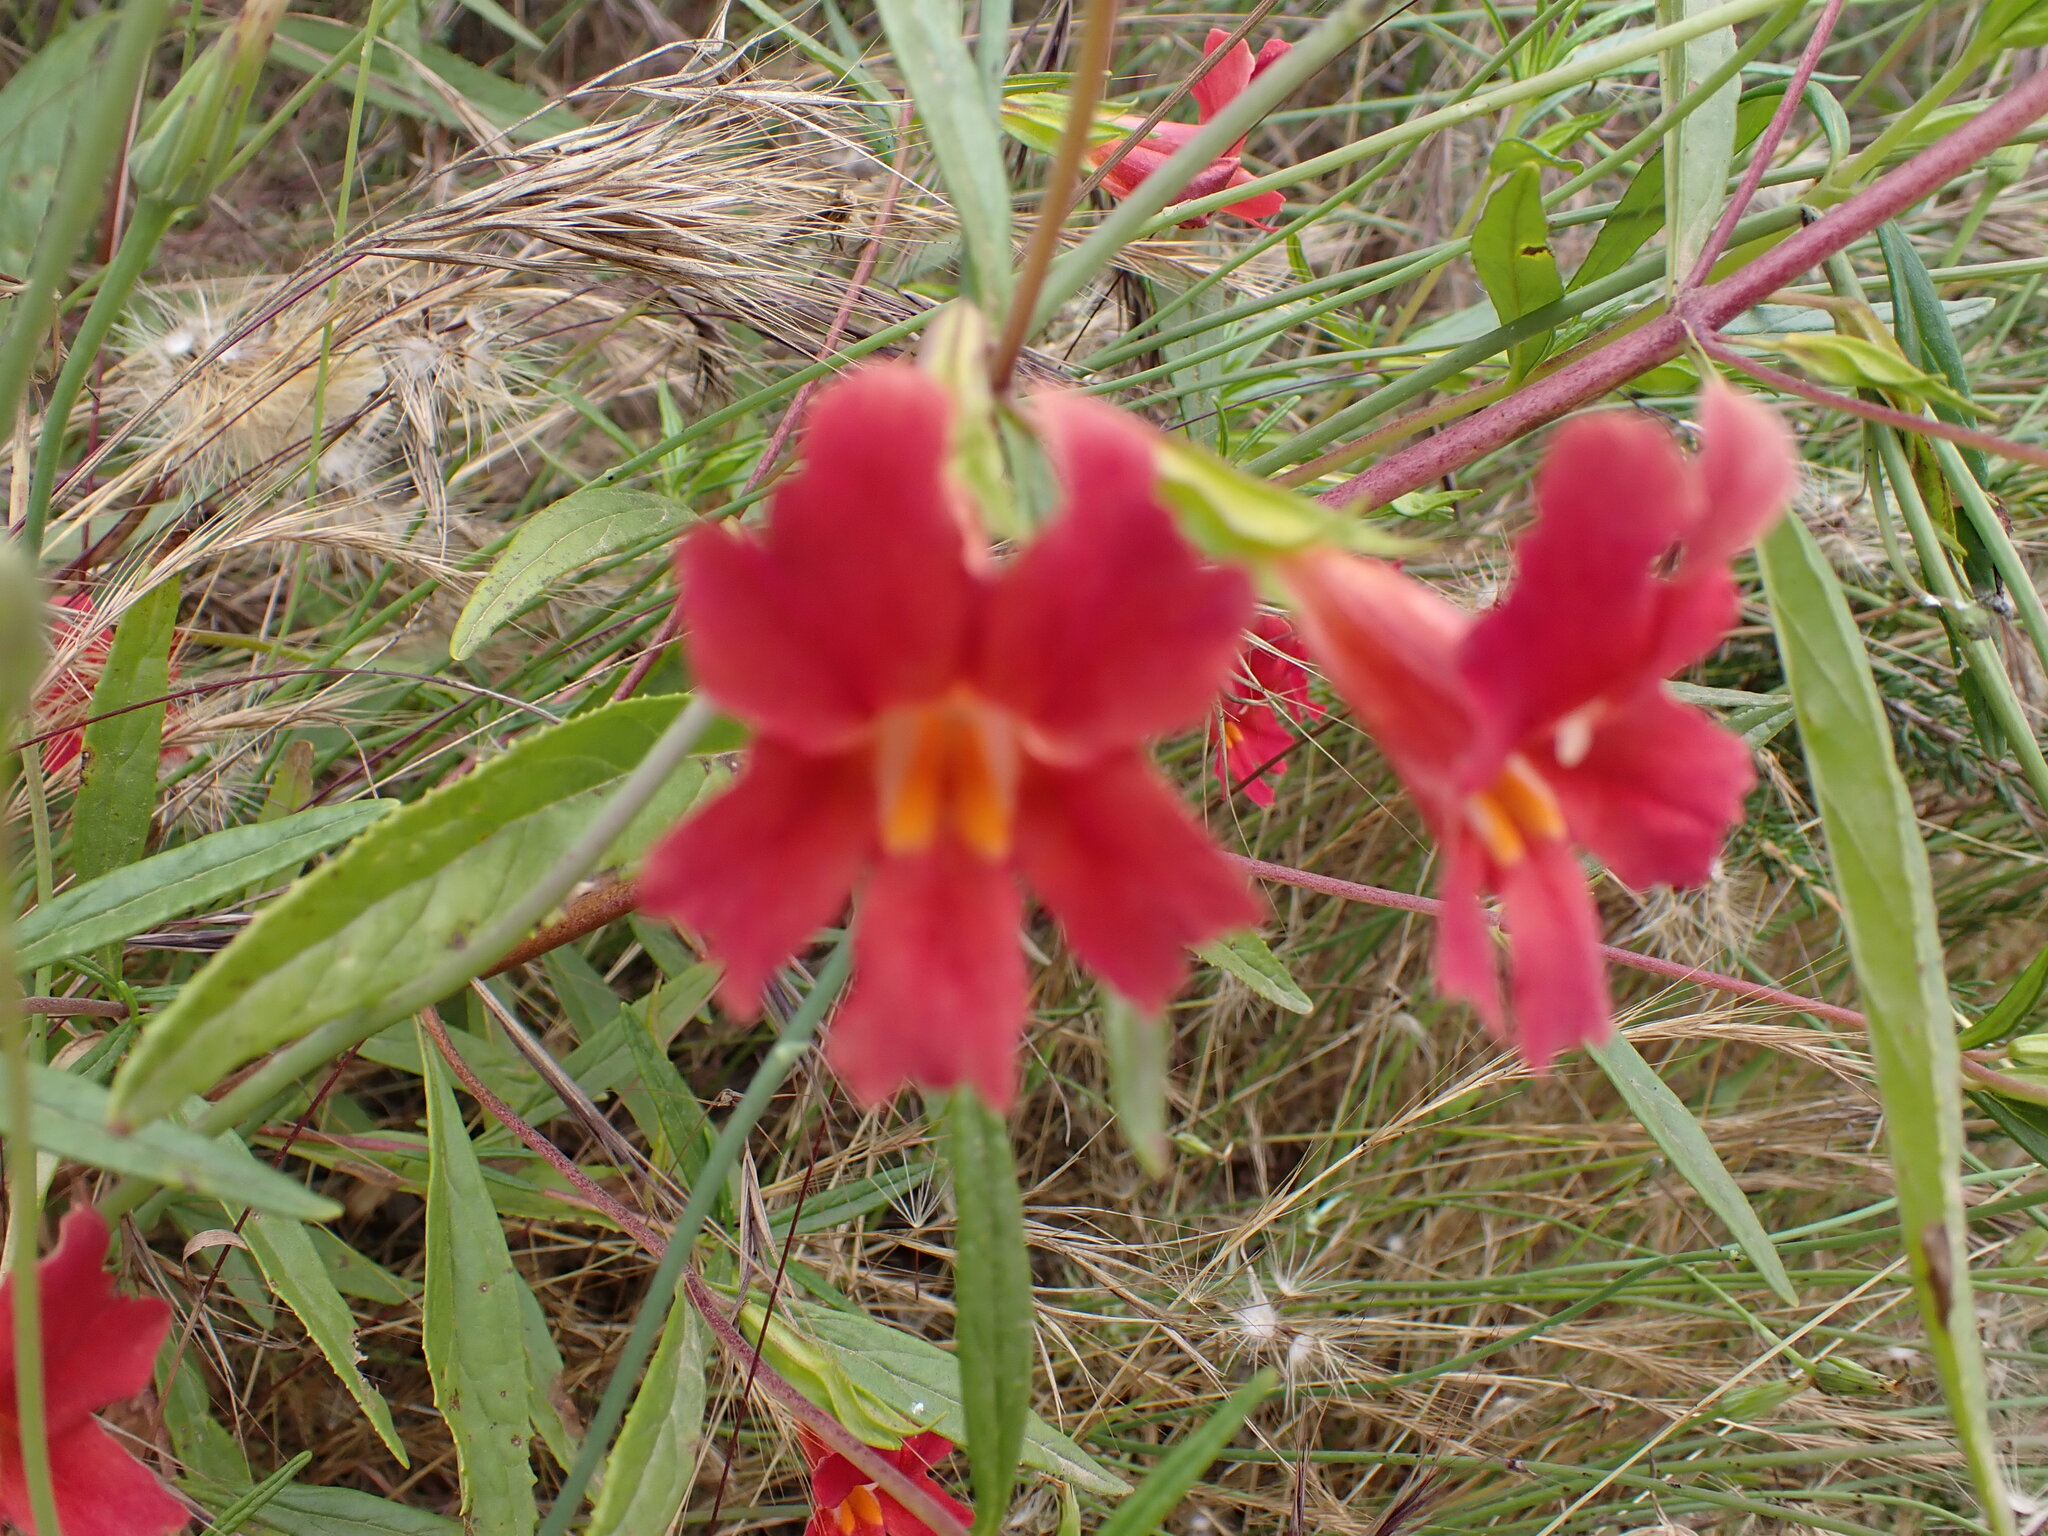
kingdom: Plantae
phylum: Tracheophyta
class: Magnoliopsida
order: Lamiales
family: Phrymaceae
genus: Diplacus
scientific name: Diplacus puniceus
